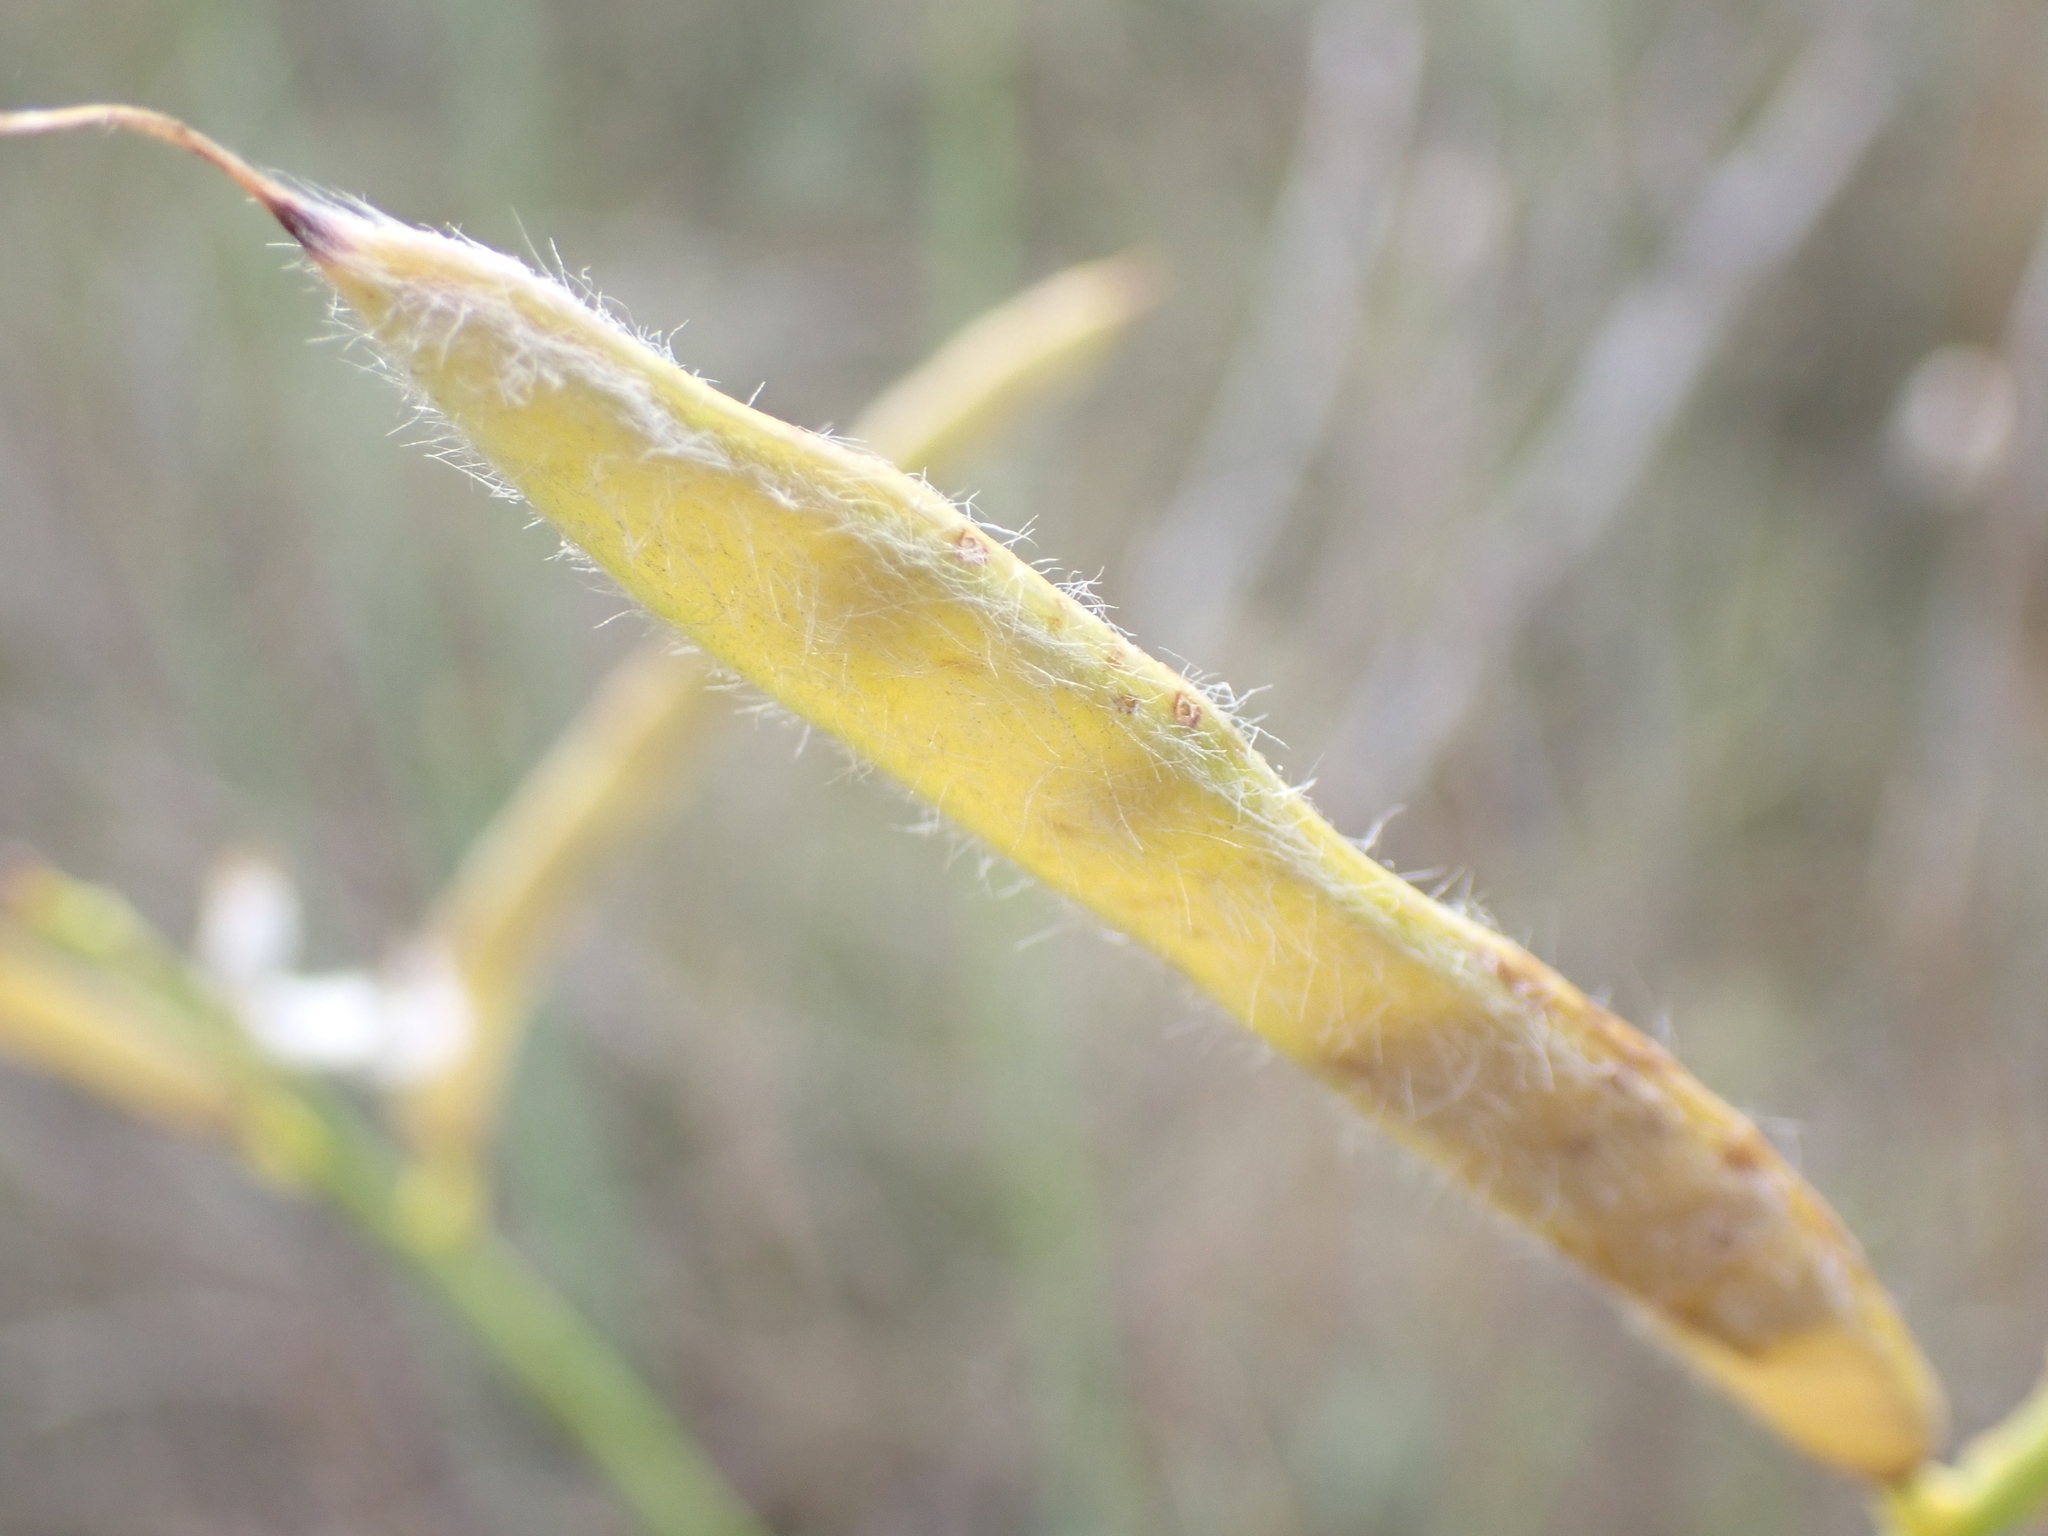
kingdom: Plantae
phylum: Tracheophyta
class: Magnoliopsida
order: Fabales
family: Fabaceae
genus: Spartium
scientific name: Spartium junceum
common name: Spanish broom
